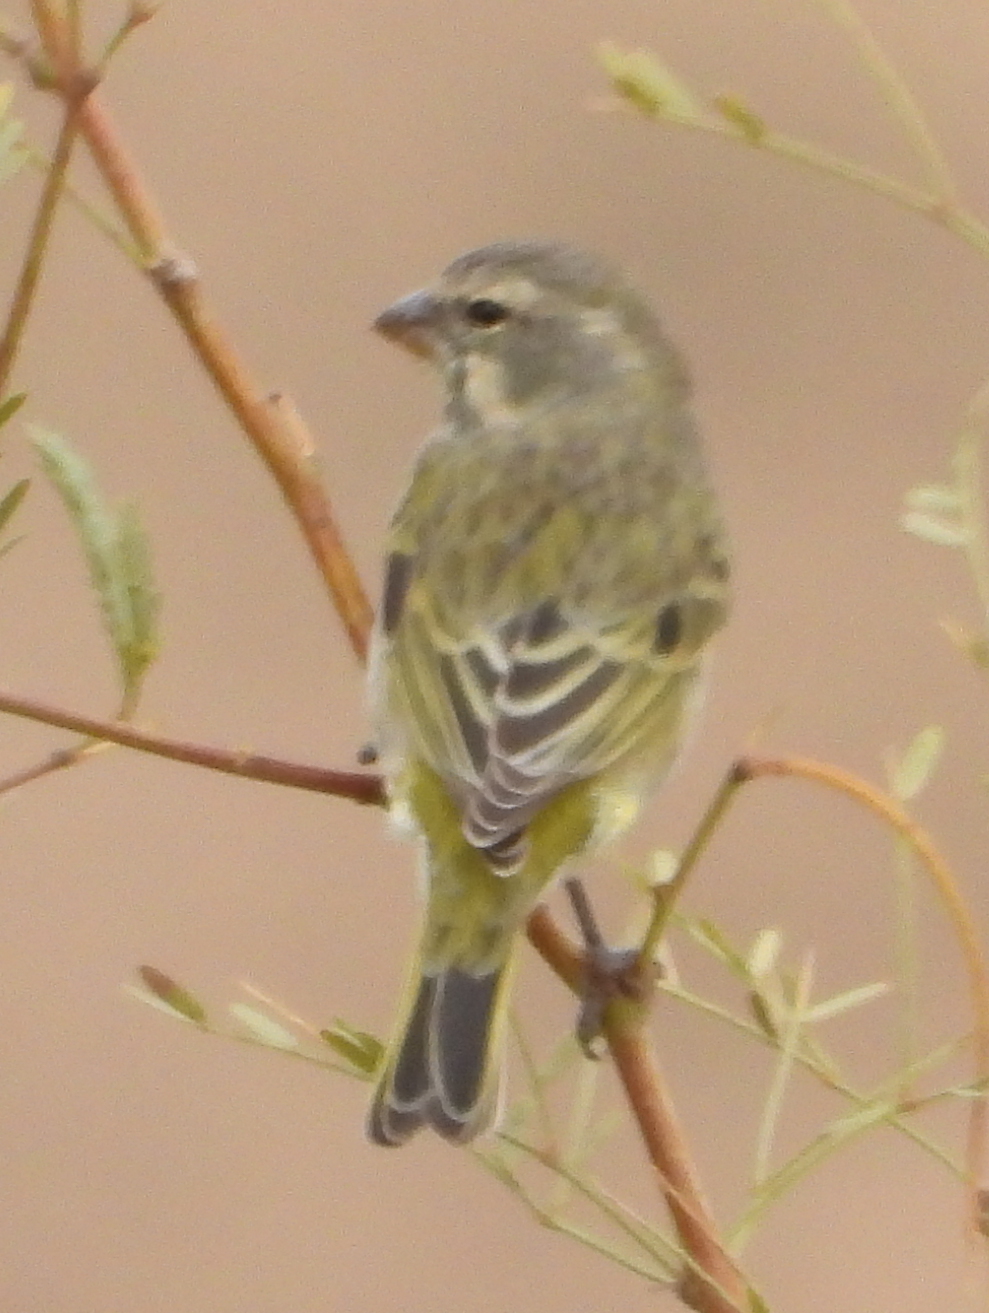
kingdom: Animalia
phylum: Chordata
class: Aves
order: Passeriformes
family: Fringillidae
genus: Crithagra
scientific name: Crithagra flaviventris
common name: Yellow canary
